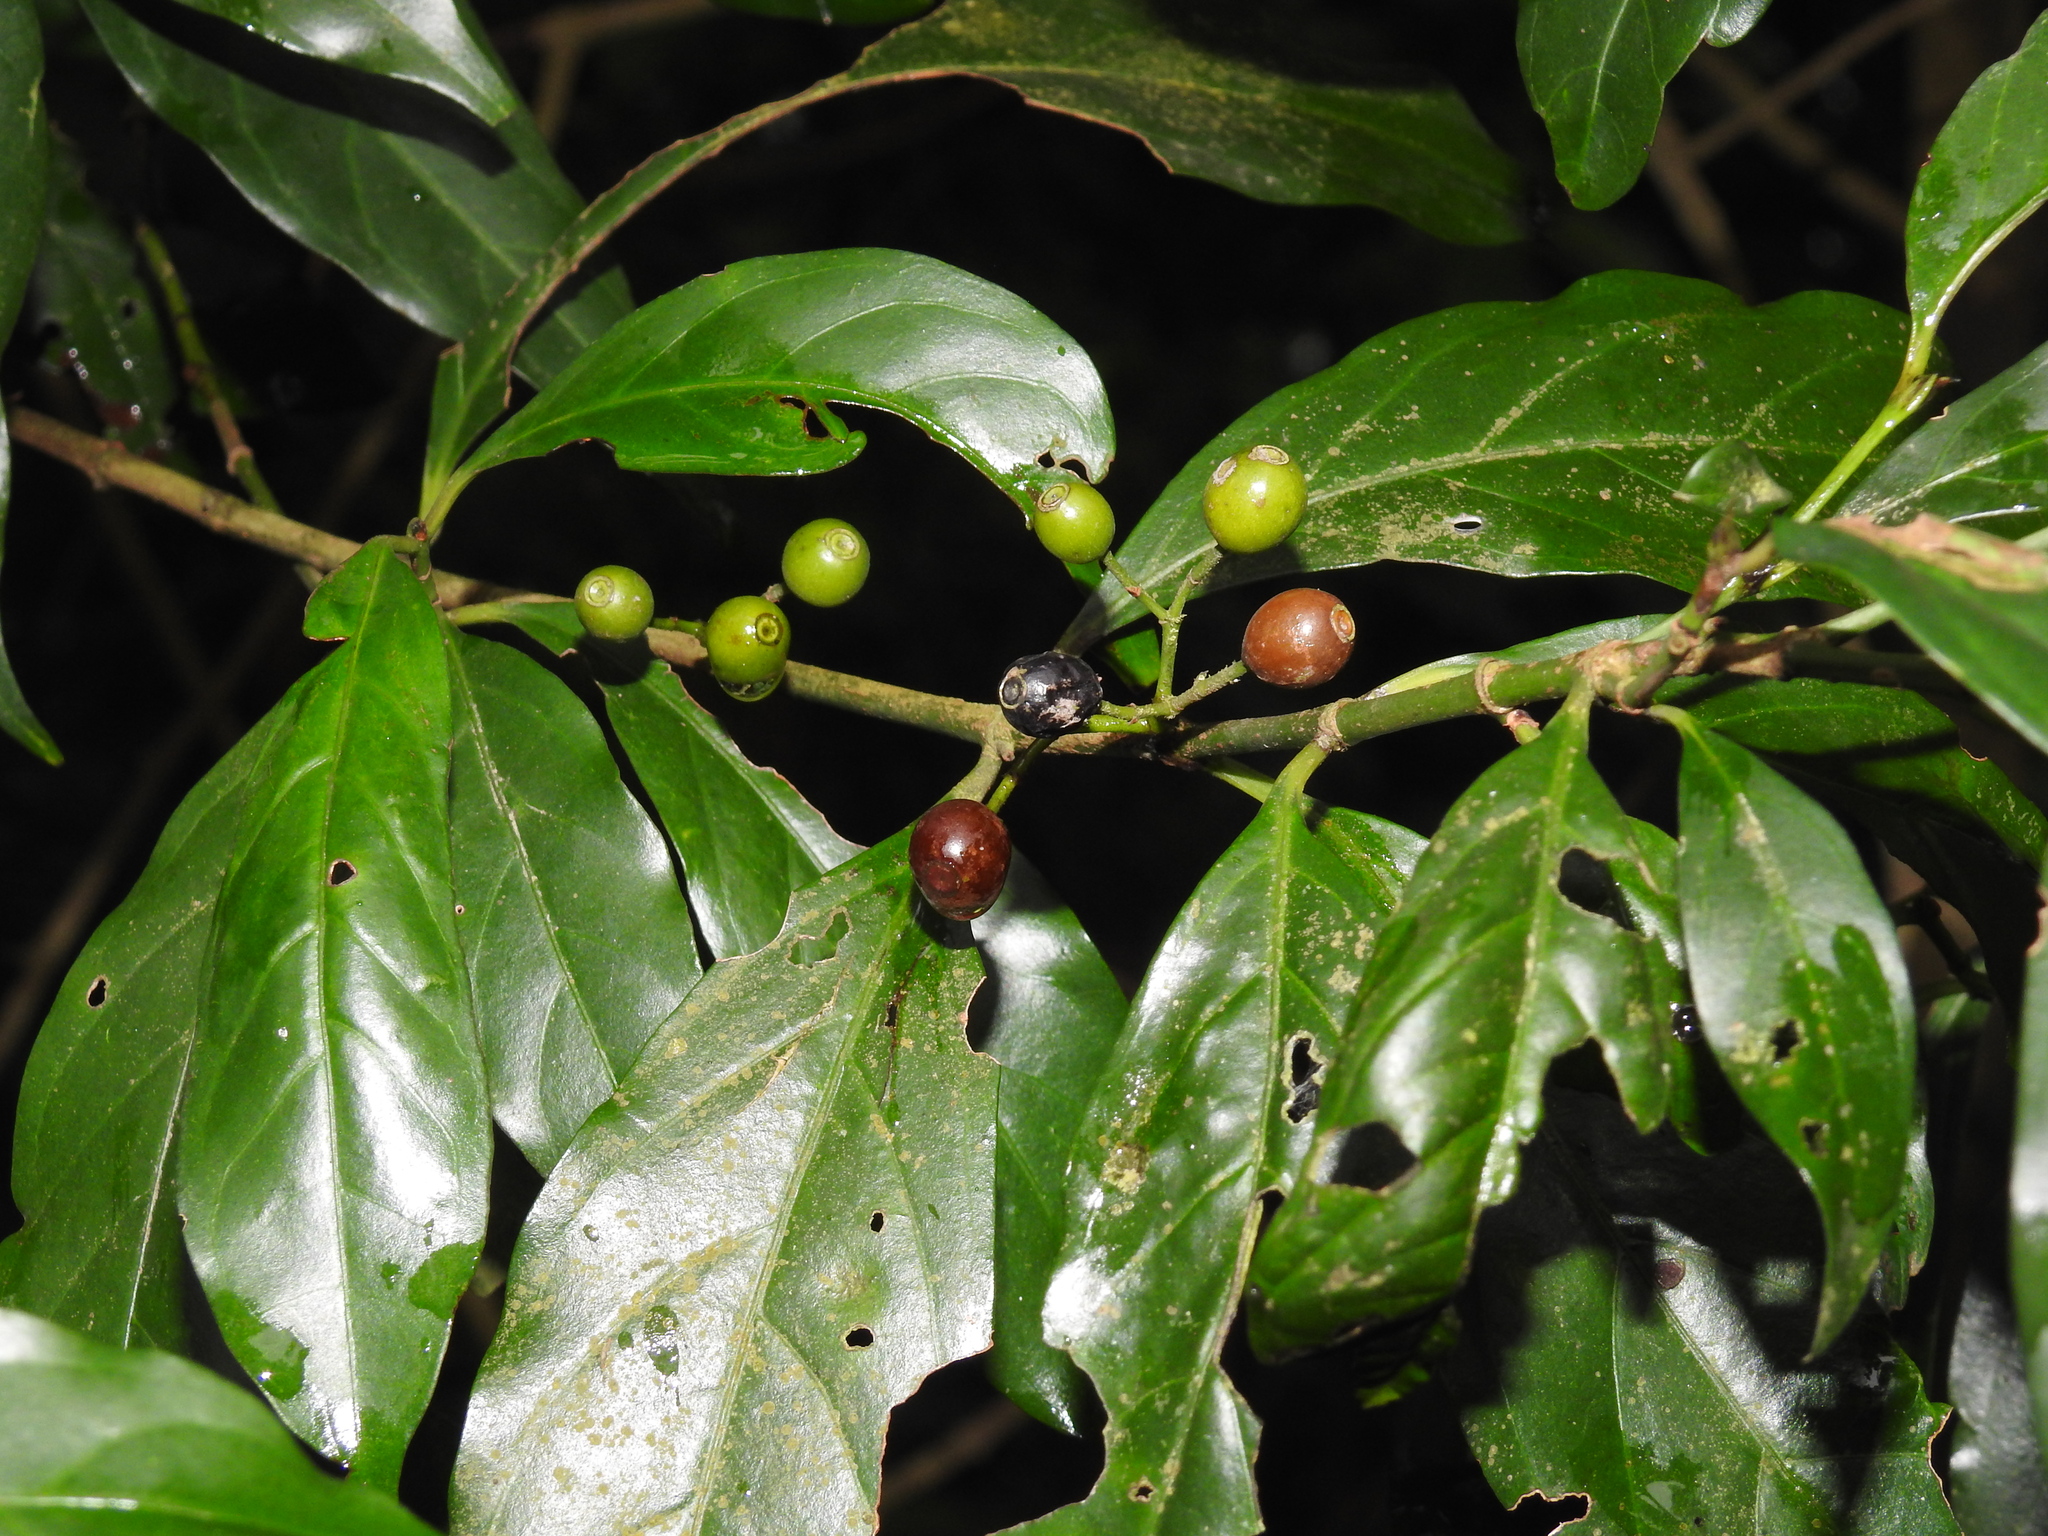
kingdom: Plantae
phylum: Tracheophyta
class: Magnoliopsida
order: Gentianales
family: Rubiaceae
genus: Aidia
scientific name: Aidia cochinchinensis
